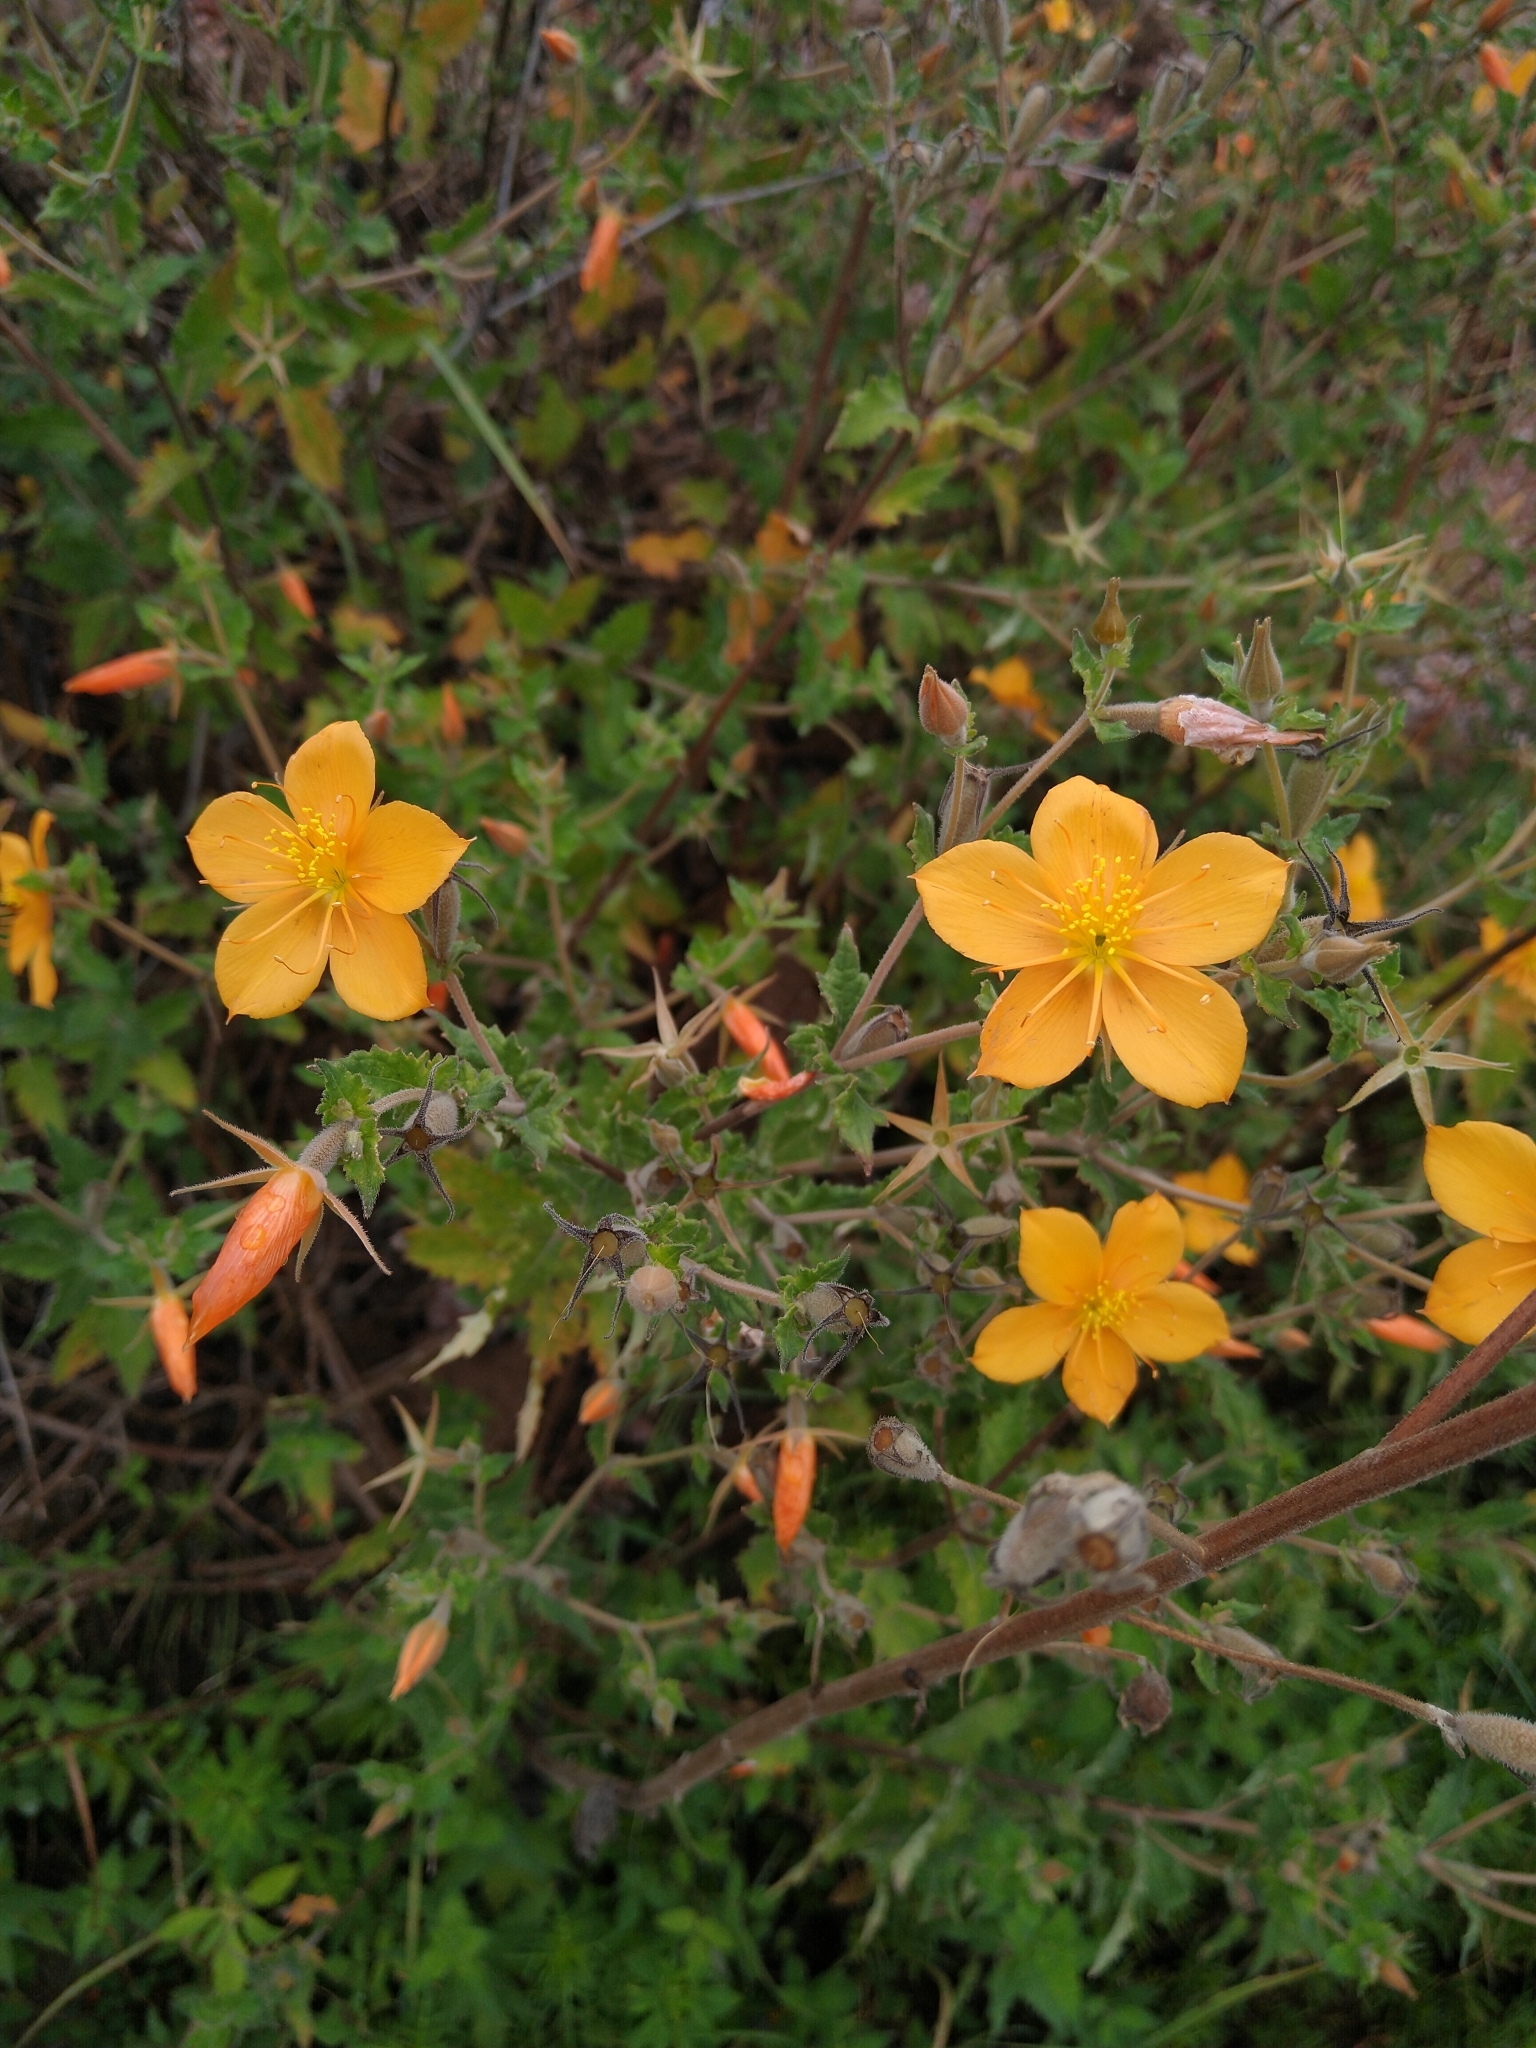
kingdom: Plantae
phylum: Tracheophyta
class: Magnoliopsida
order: Cornales
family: Loasaceae
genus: Mentzelia
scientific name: Mentzelia hispida
